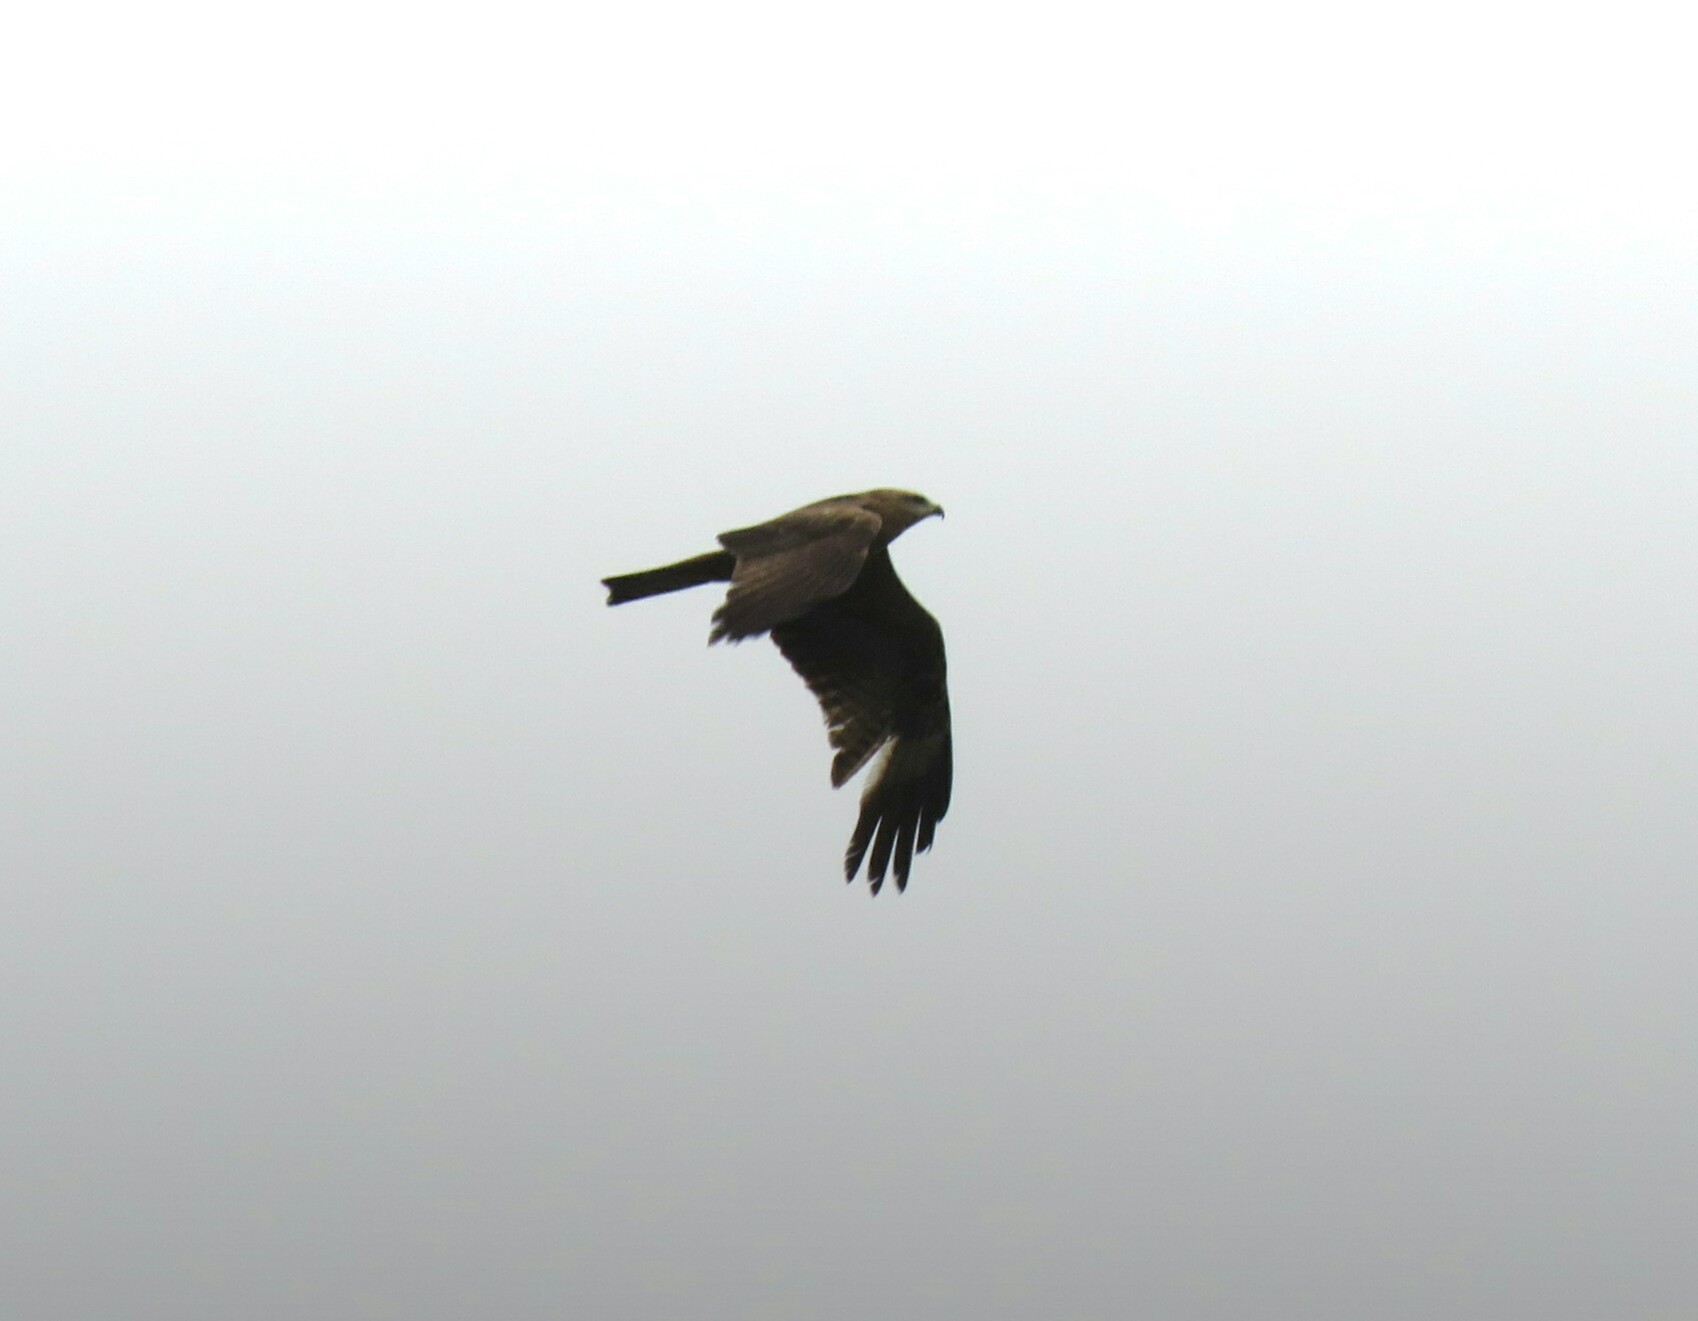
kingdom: Animalia
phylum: Chordata
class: Aves
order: Accipitriformes
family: Accipitridae
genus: Milvus
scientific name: Milvus migrans
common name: Black kite
